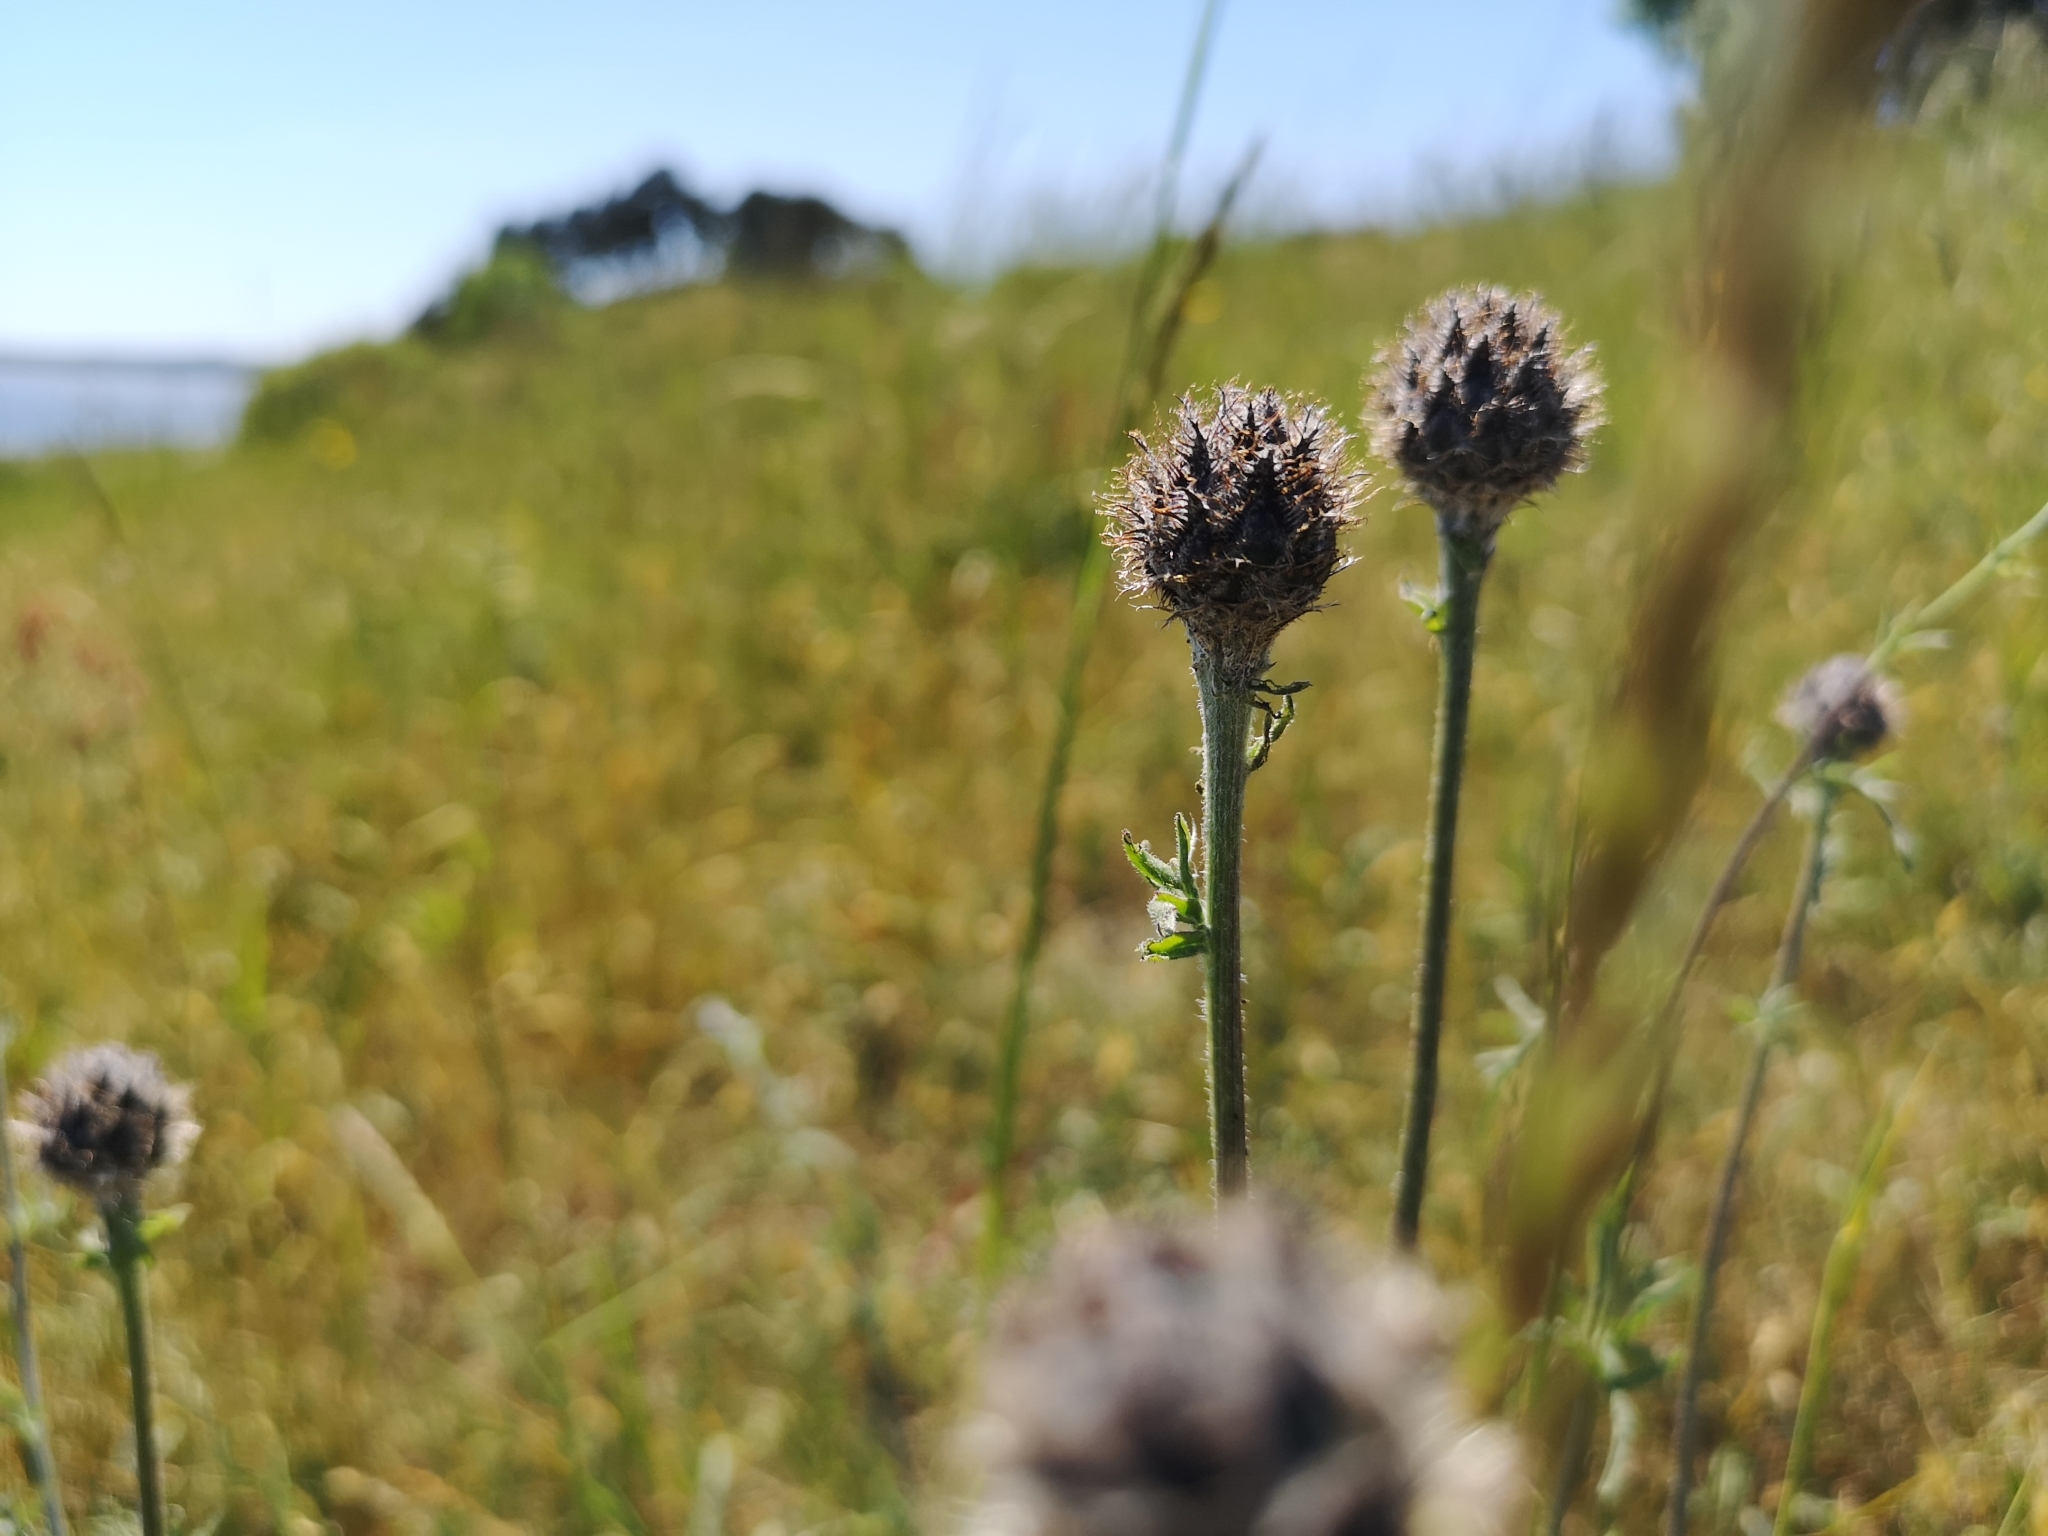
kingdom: Plantae
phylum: Tracheophyta
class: Magnoliopsida
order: Asterales
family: Asteraceae
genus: Centaurea
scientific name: Centaurea scabiosa
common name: Greater knapweed
